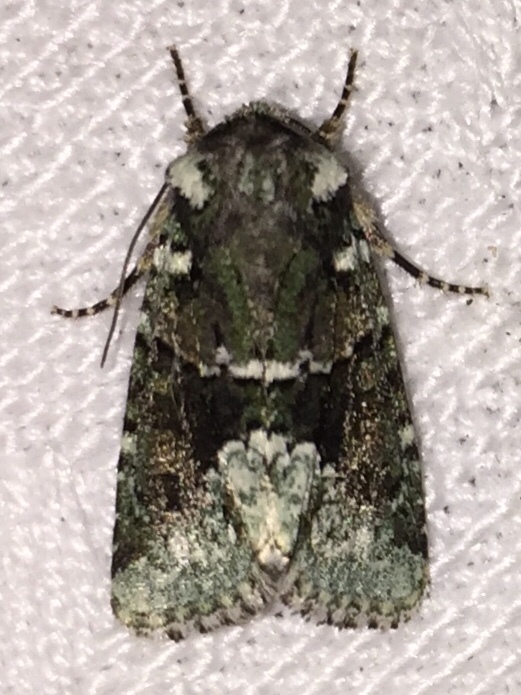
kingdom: Animalia
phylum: Arthropoda
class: Insecta
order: Lepidoptera
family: Noctuidae
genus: Lacinipolia
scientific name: Lacinipolia explicata
